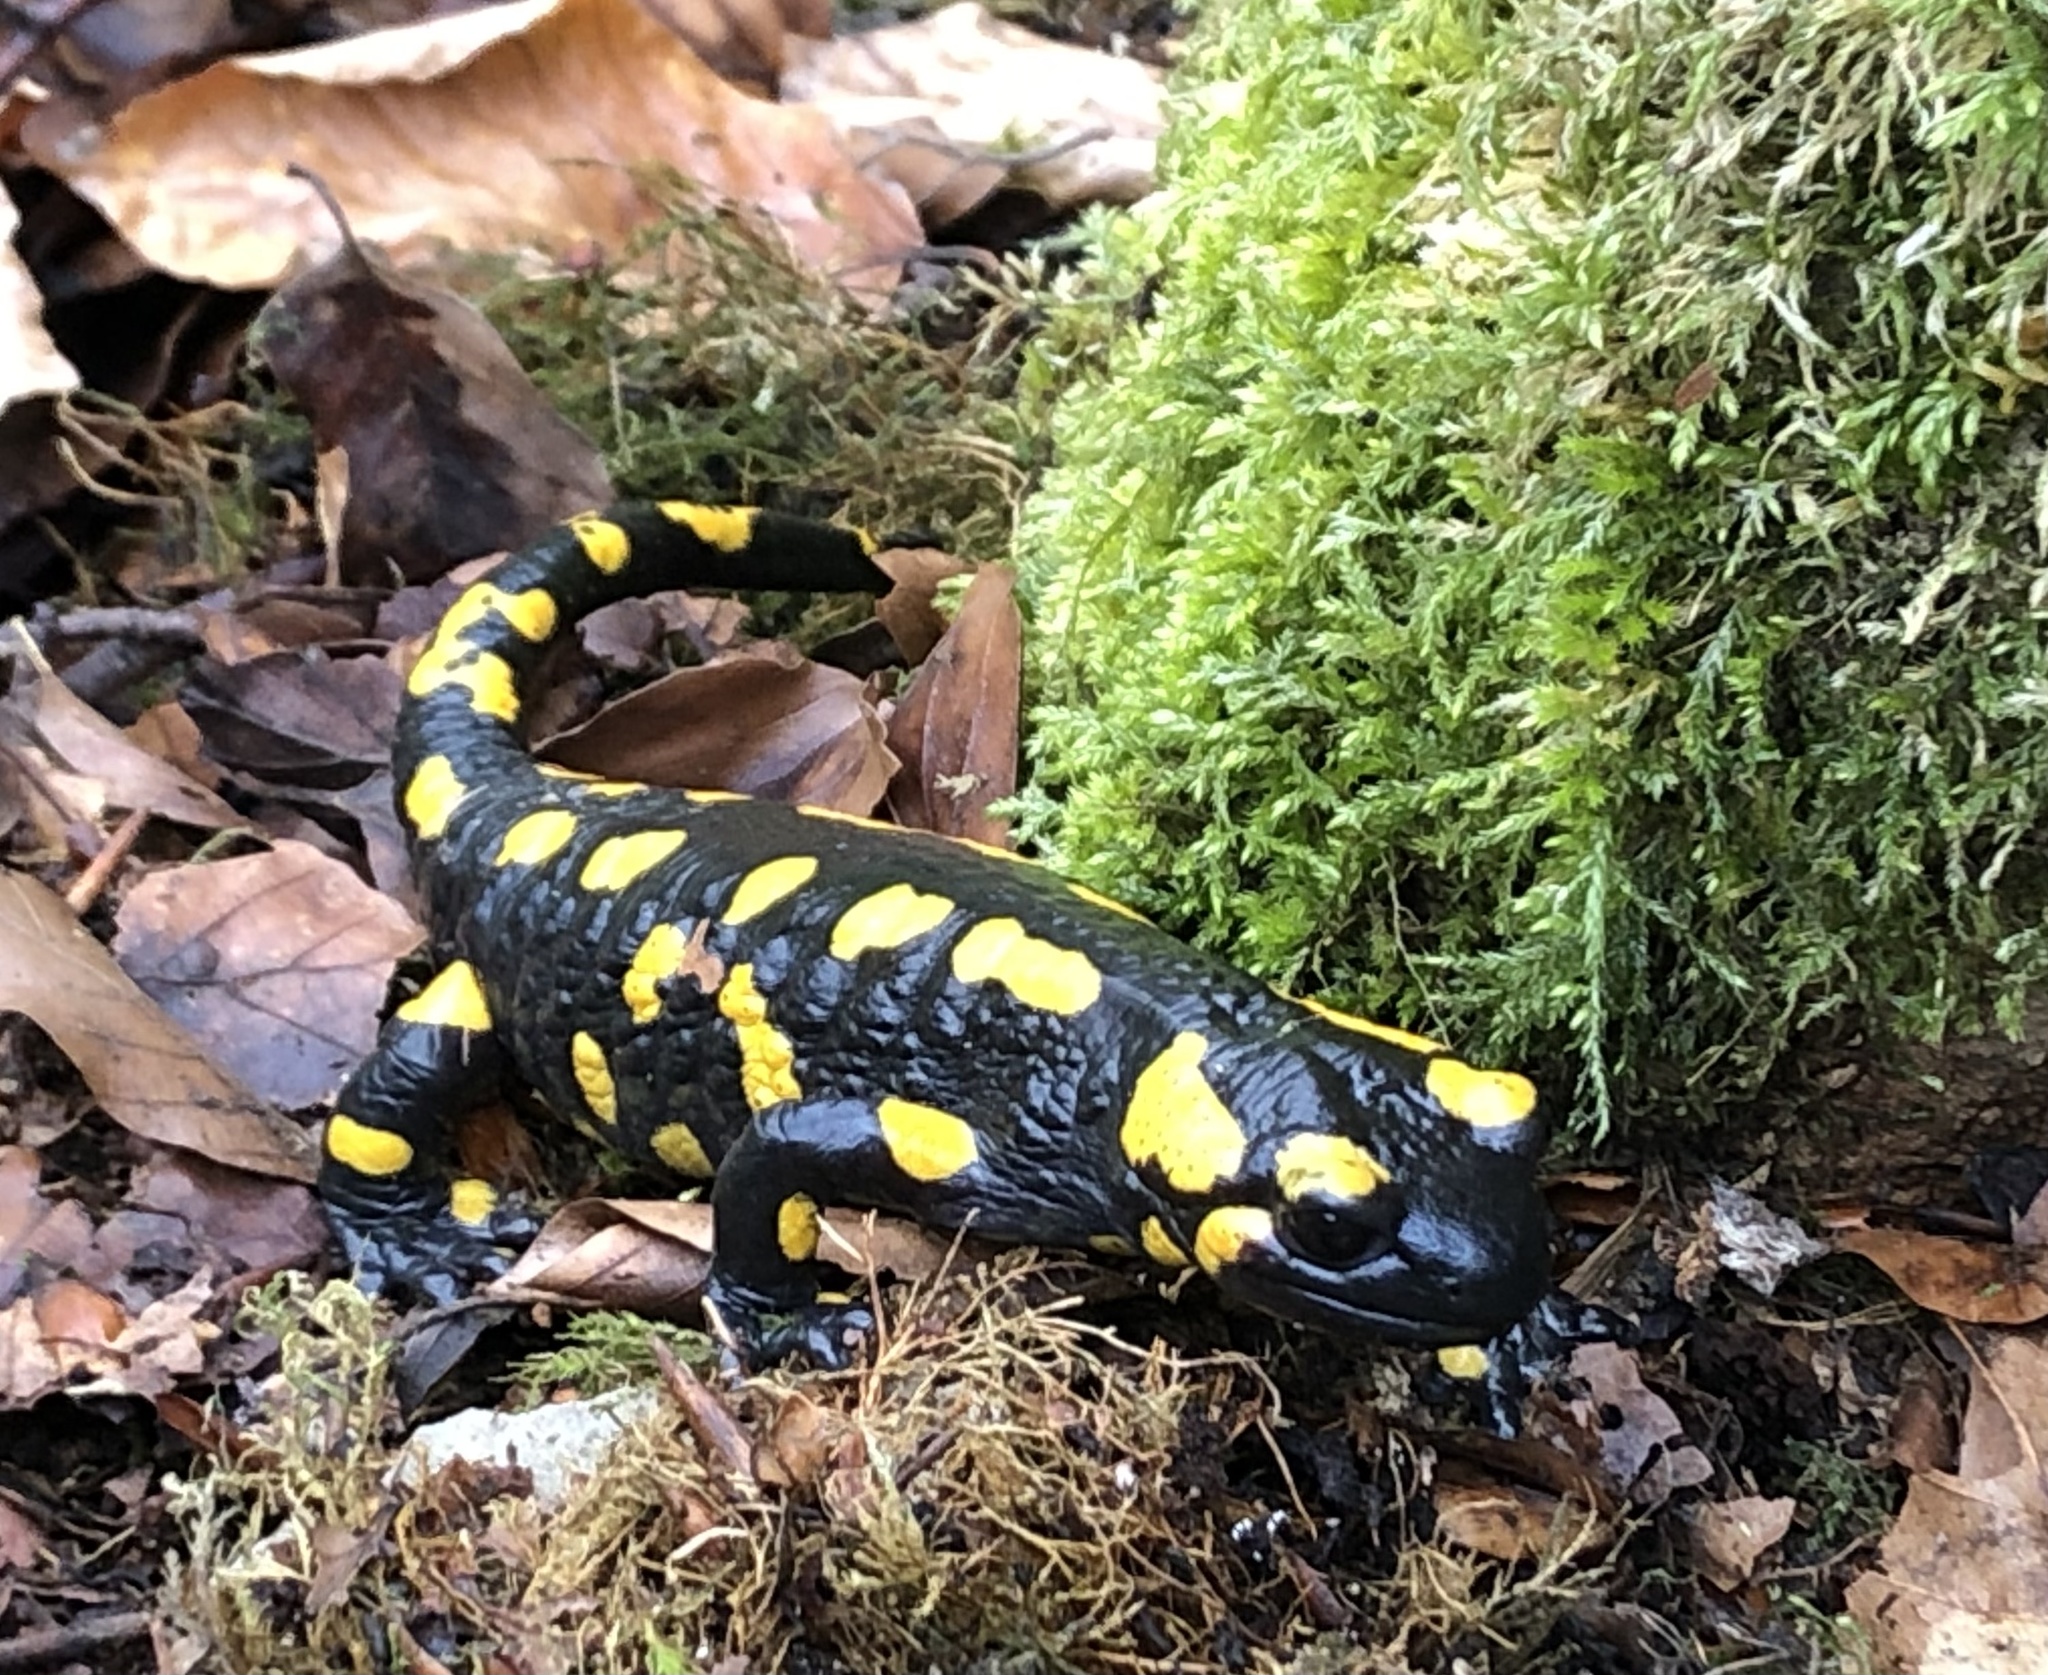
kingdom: Animalia
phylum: Chordata
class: Amphibia
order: Caudata
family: Salamandridae
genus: Salamandra
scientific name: Salamandra salamandra
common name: Fire salamander
